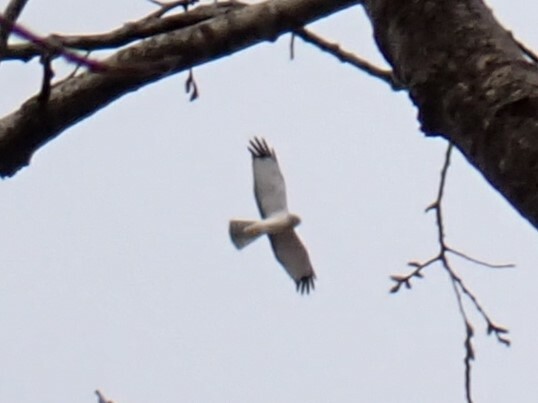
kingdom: Animalia
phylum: Chordata
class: Aves
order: Accipitriformes
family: Accipitridae
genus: Circus
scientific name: Circus cyaneus
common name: Hen harrier
